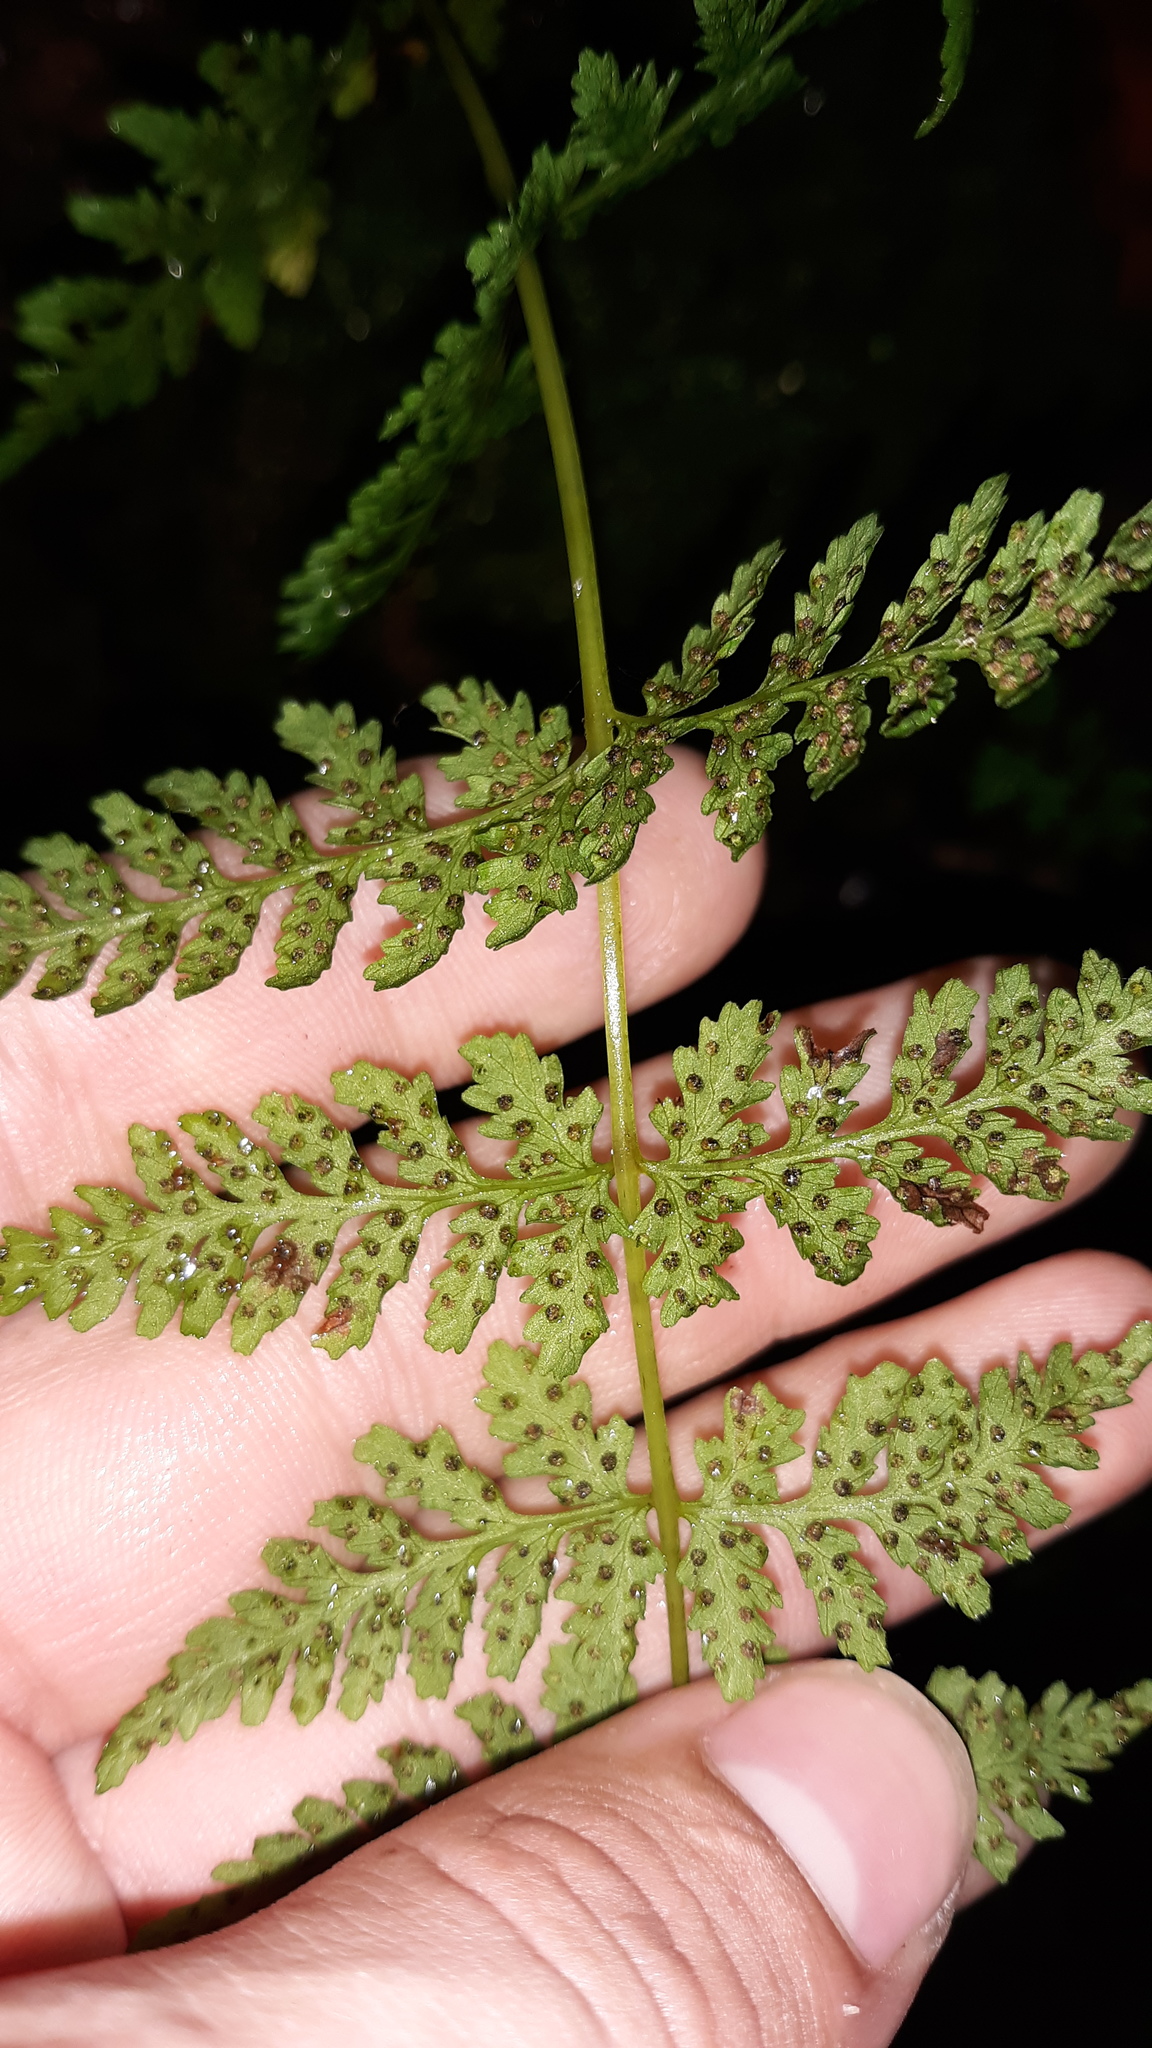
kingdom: Plantae
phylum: Tracheophyta
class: Polypodiopsida
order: Polypodiales
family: Cystopteridaceae
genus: Cystopteris
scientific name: Cystopteris bulbifera
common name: Bulblet bladder fern
